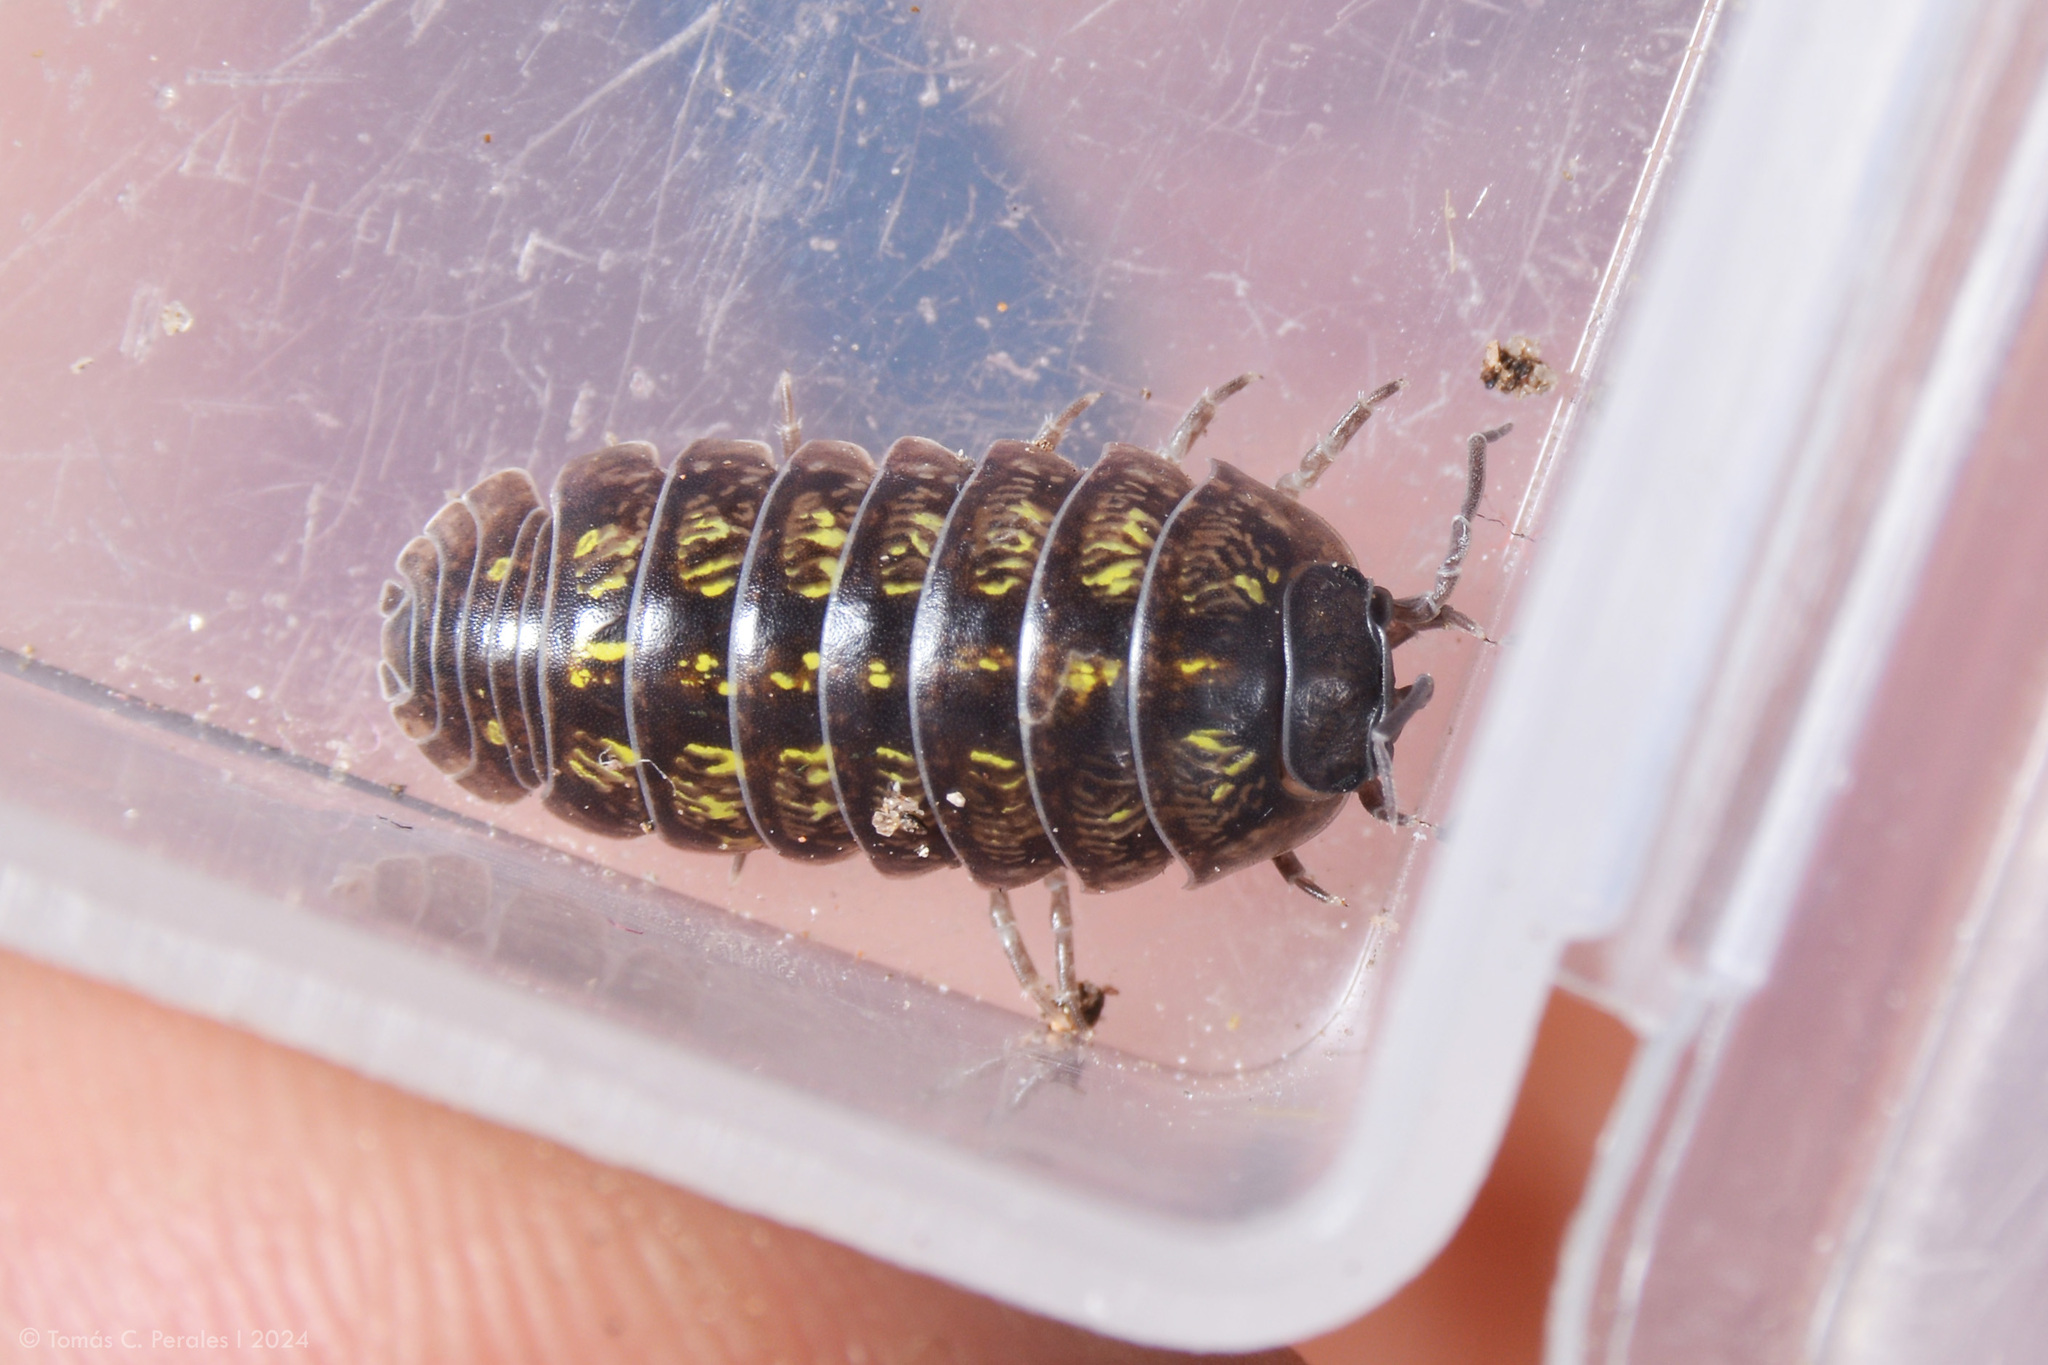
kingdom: Animalia
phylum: Arthropoda
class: Malacostraca
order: Isopoda
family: Armadillidiidae
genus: Armadillidium
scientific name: Armadillidium vulgare
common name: Common pill woodlouse
